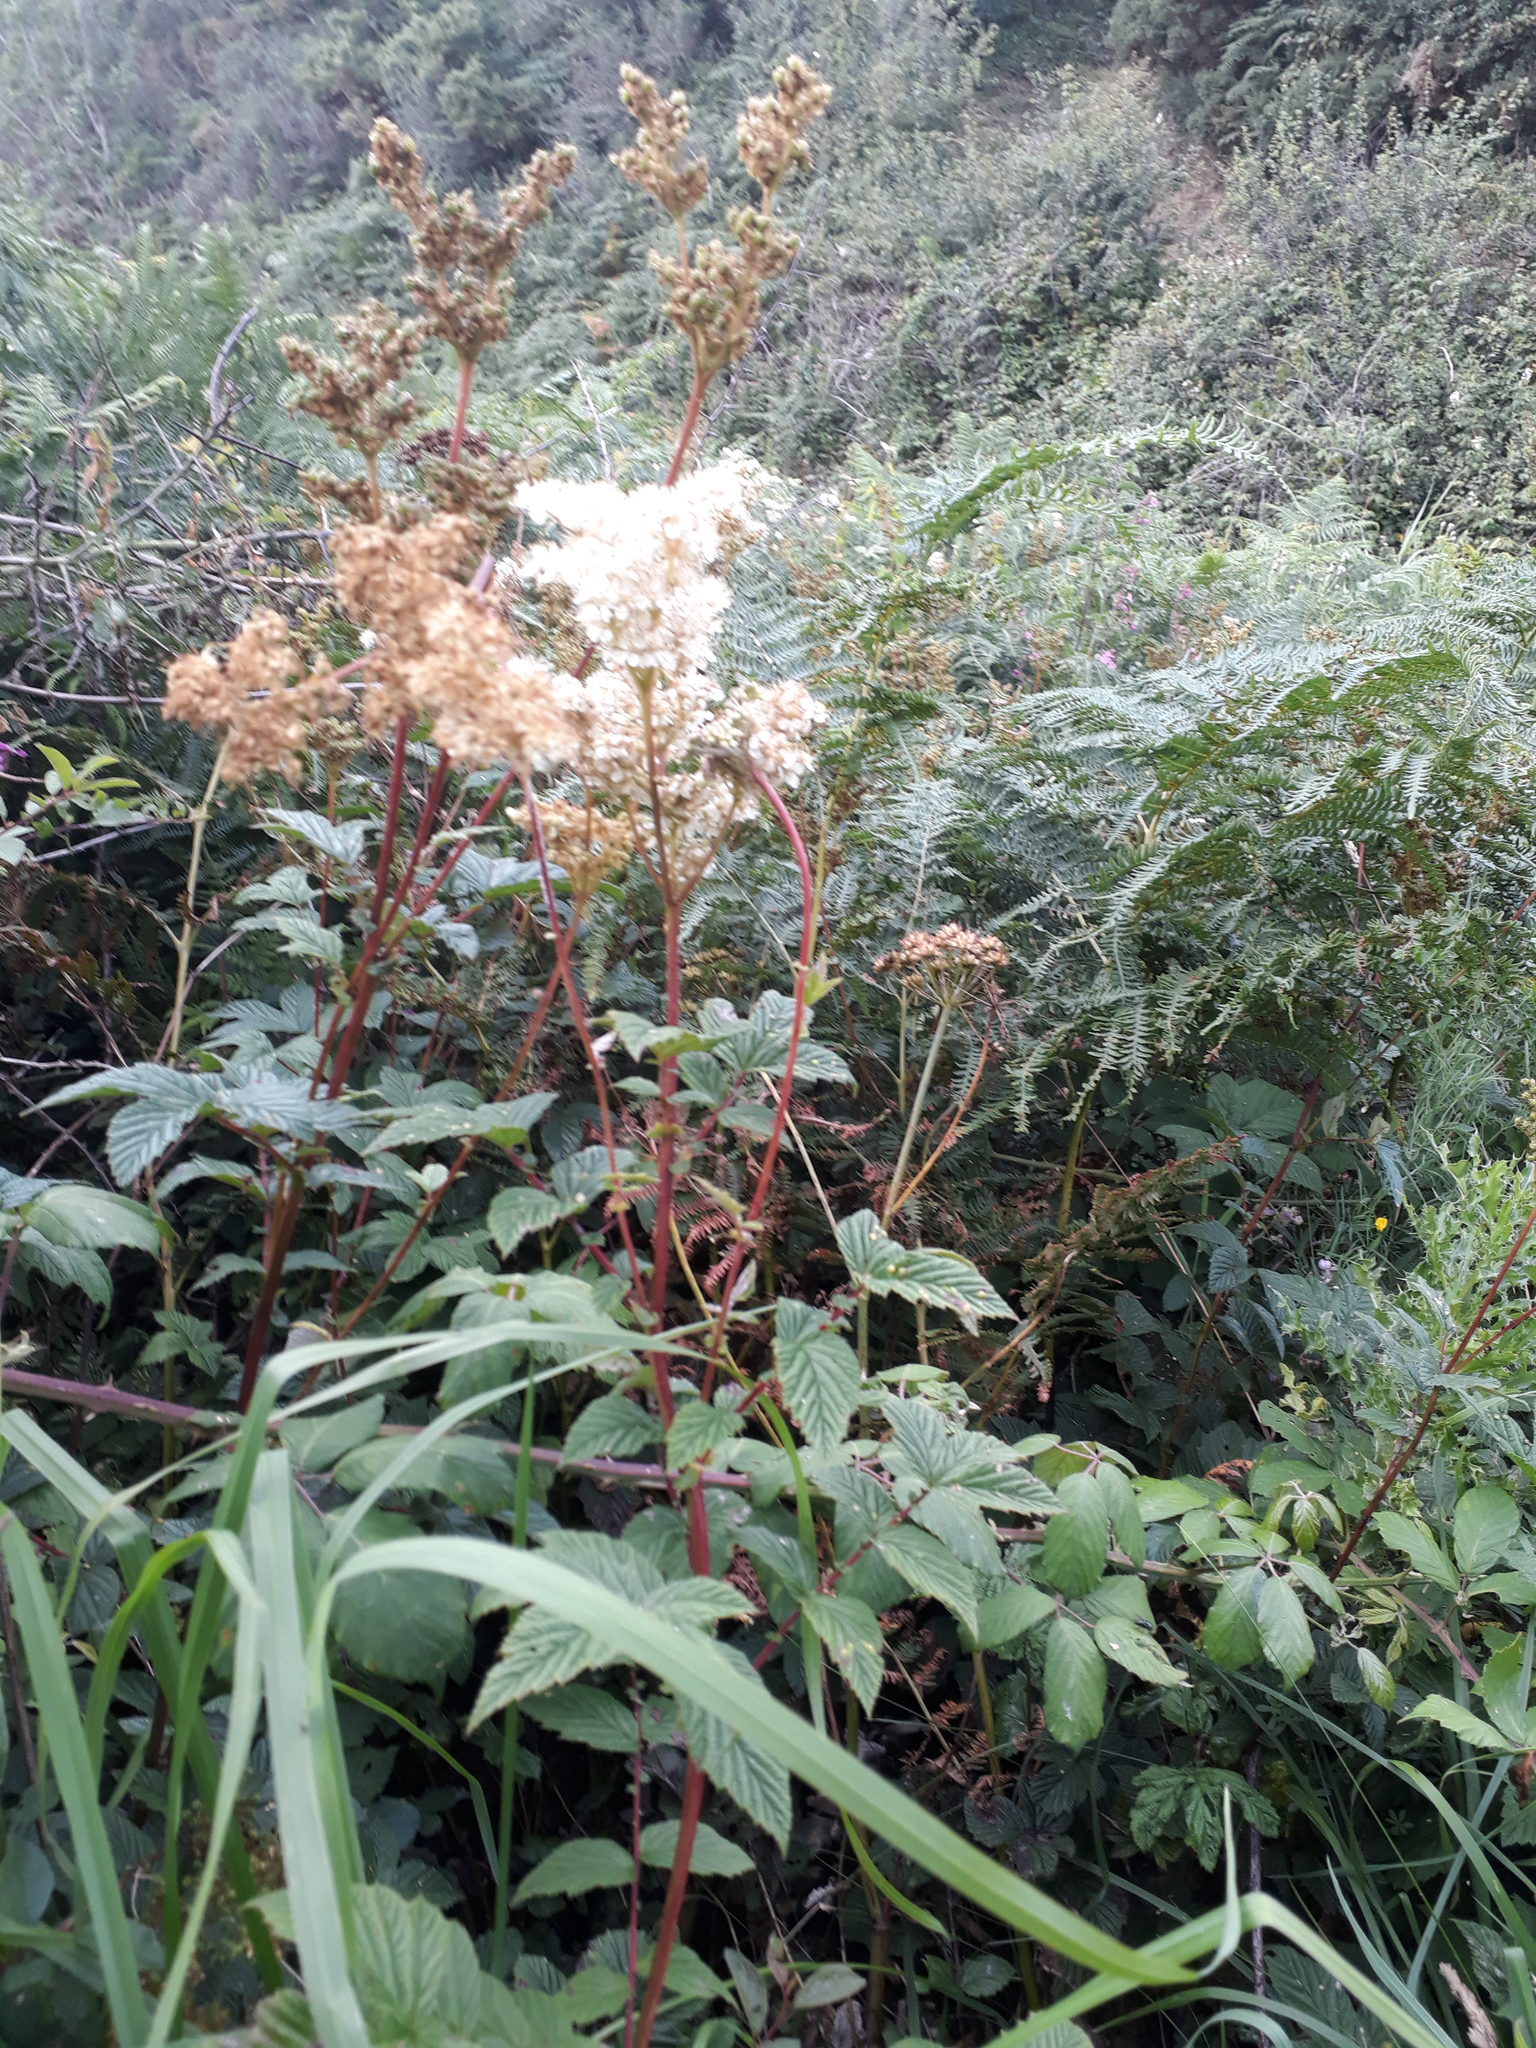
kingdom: Plantae
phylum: Tracheophyta
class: Magnoliopsida
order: Rosales
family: Rosaceae
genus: Filipendula
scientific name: Filipendula ulmaria
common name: Meadowsweet
